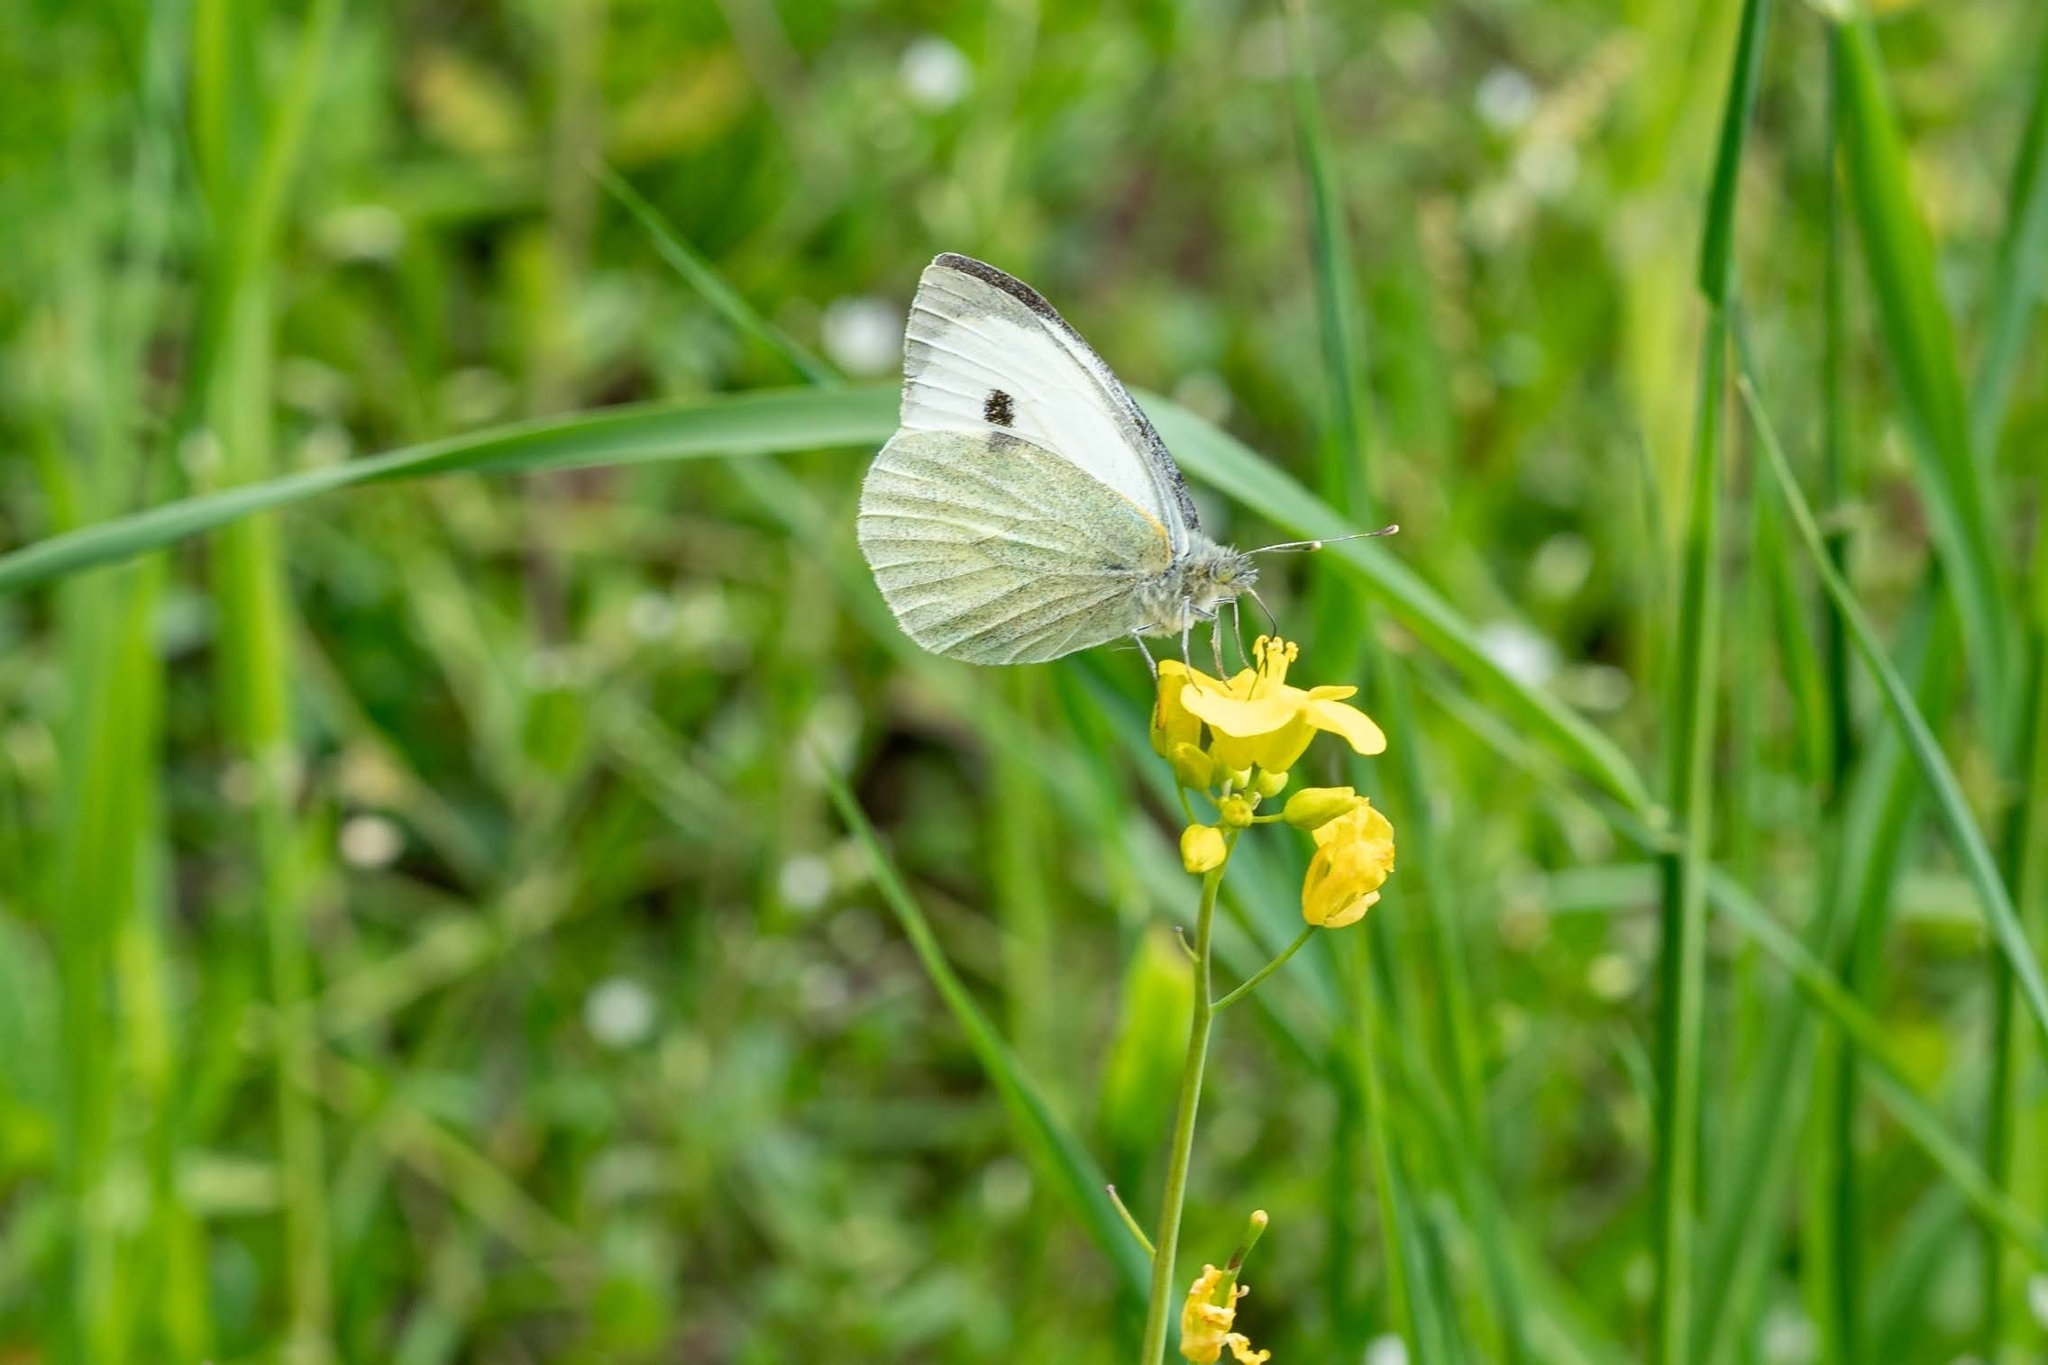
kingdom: Animalia
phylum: Arthropoda
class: Insecta
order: Lepidoptera
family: Pieridae
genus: Pieris
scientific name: Pieris brassicae
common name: Large white
